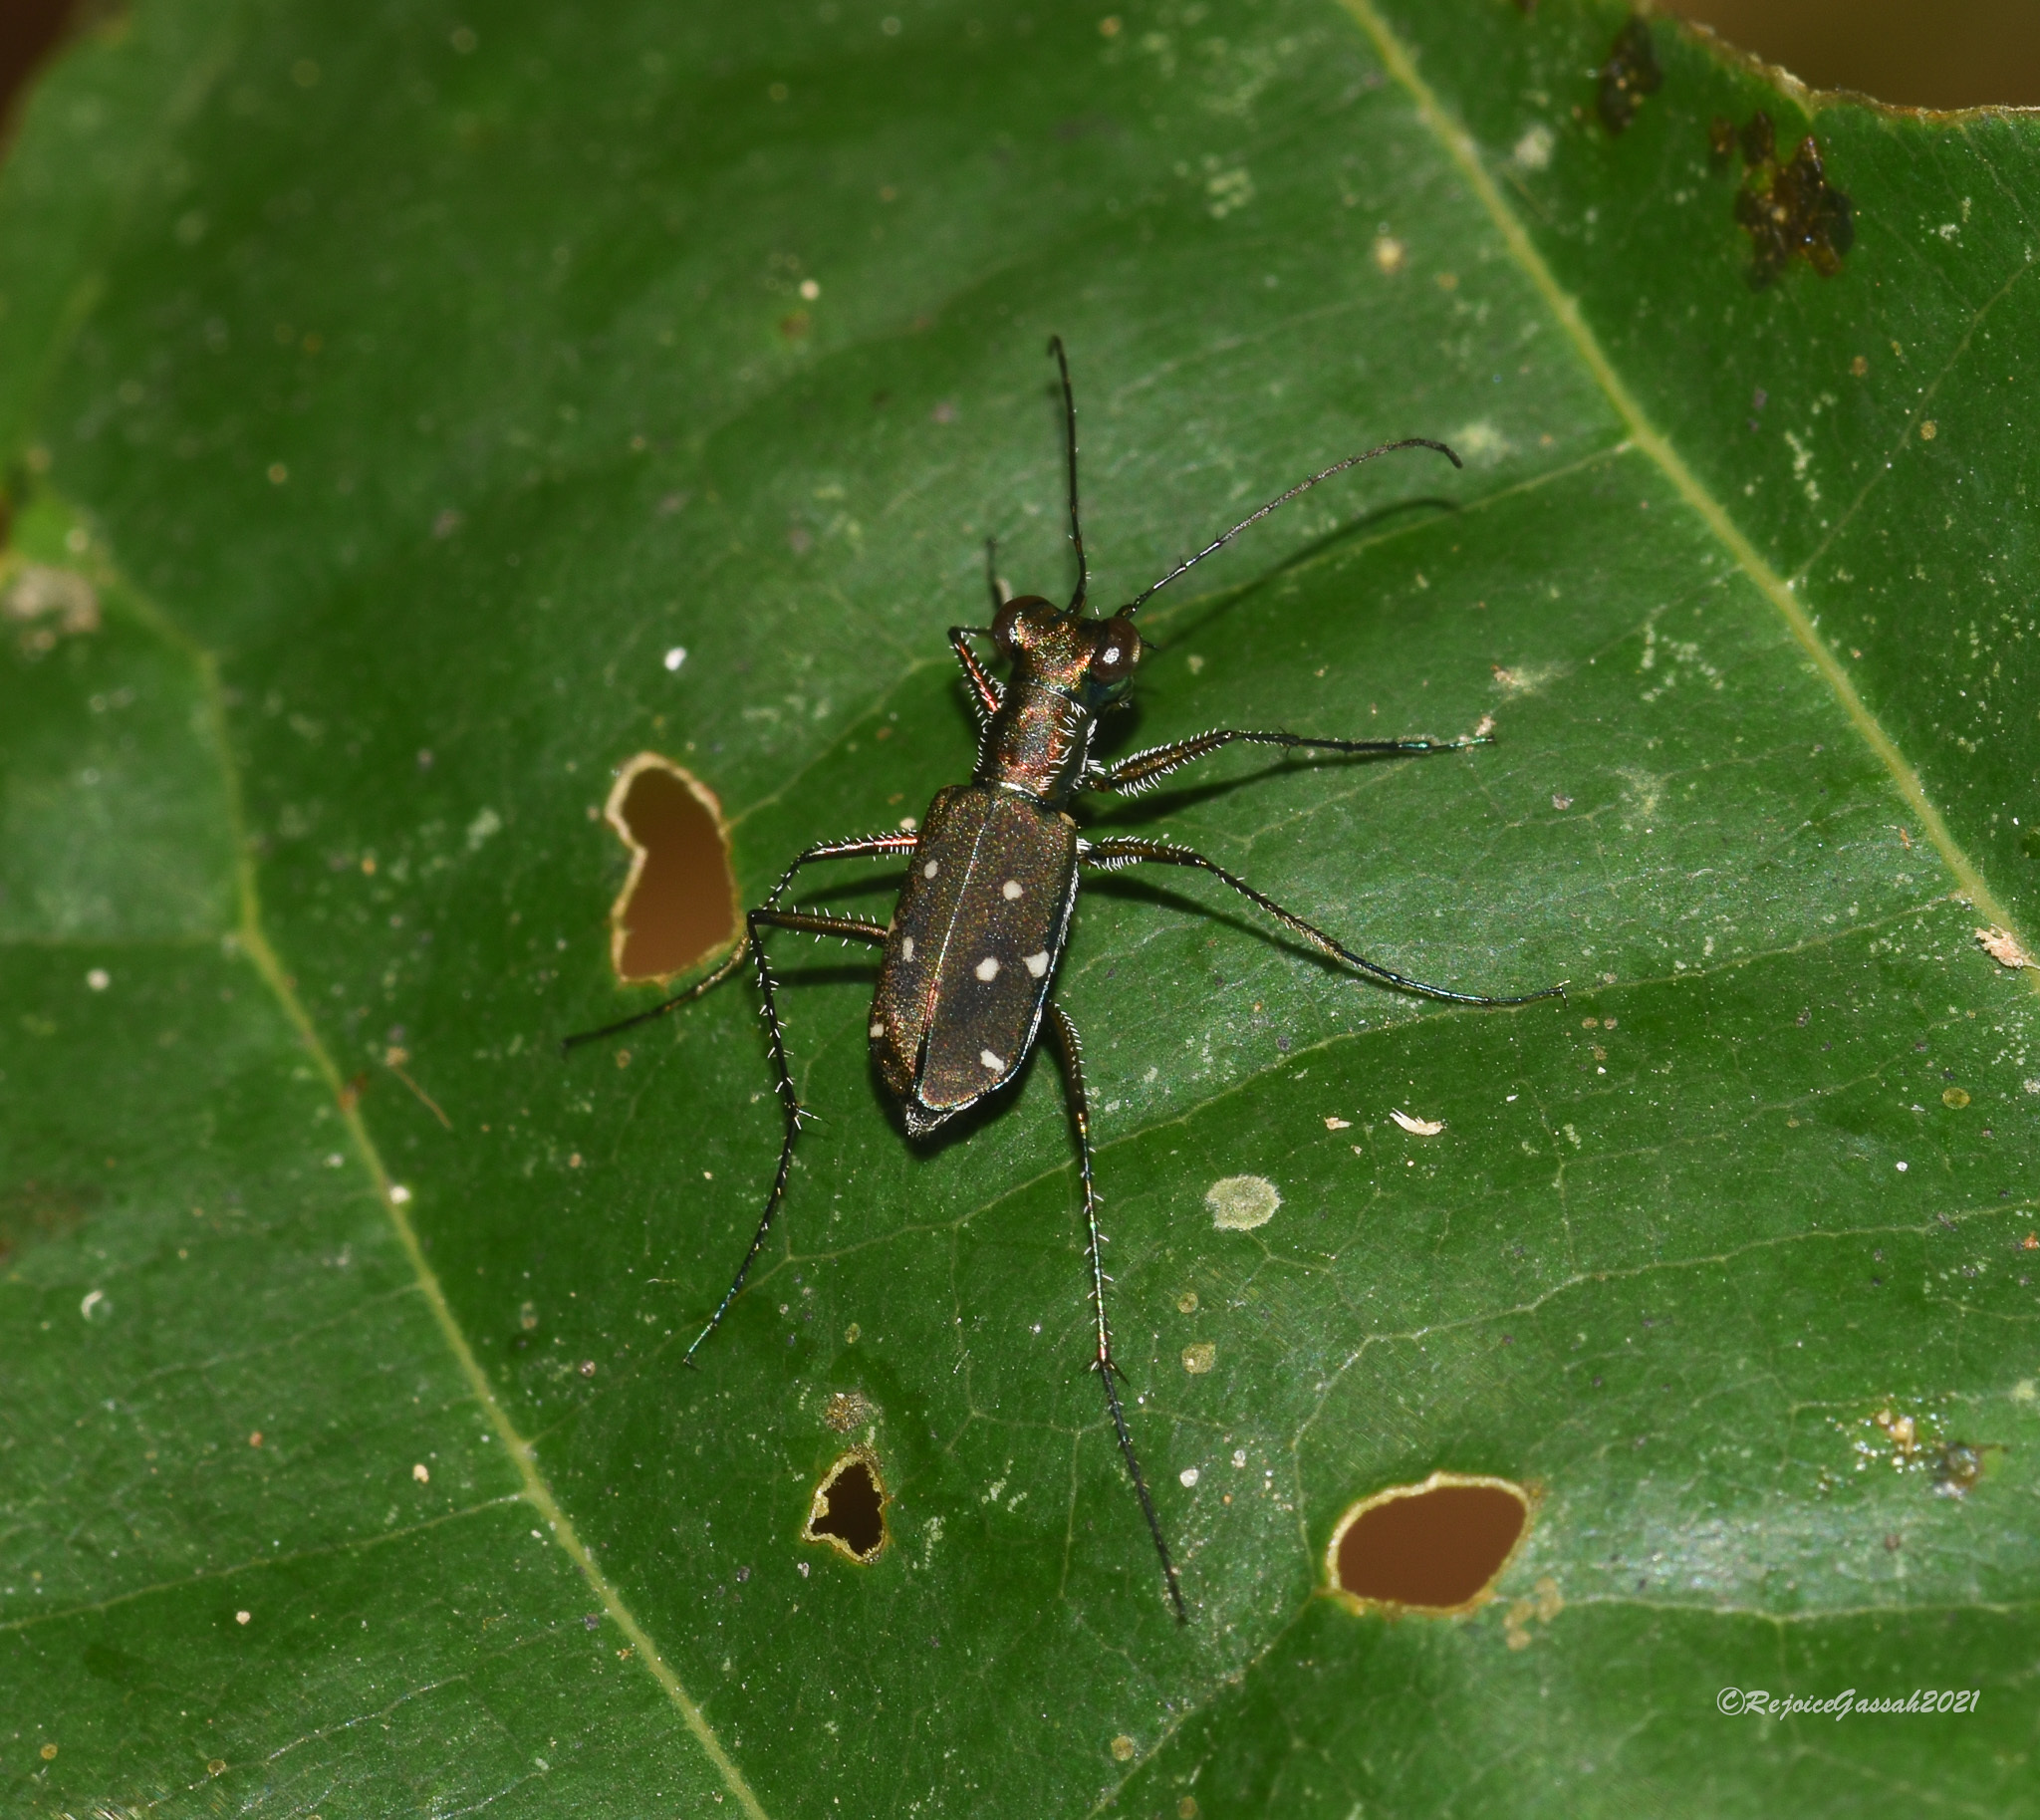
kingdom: Animalia
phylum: Arthropoda
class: Insecta
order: Coleoptera
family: Carabidae
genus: Cylindera
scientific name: Cylindera spinolae
